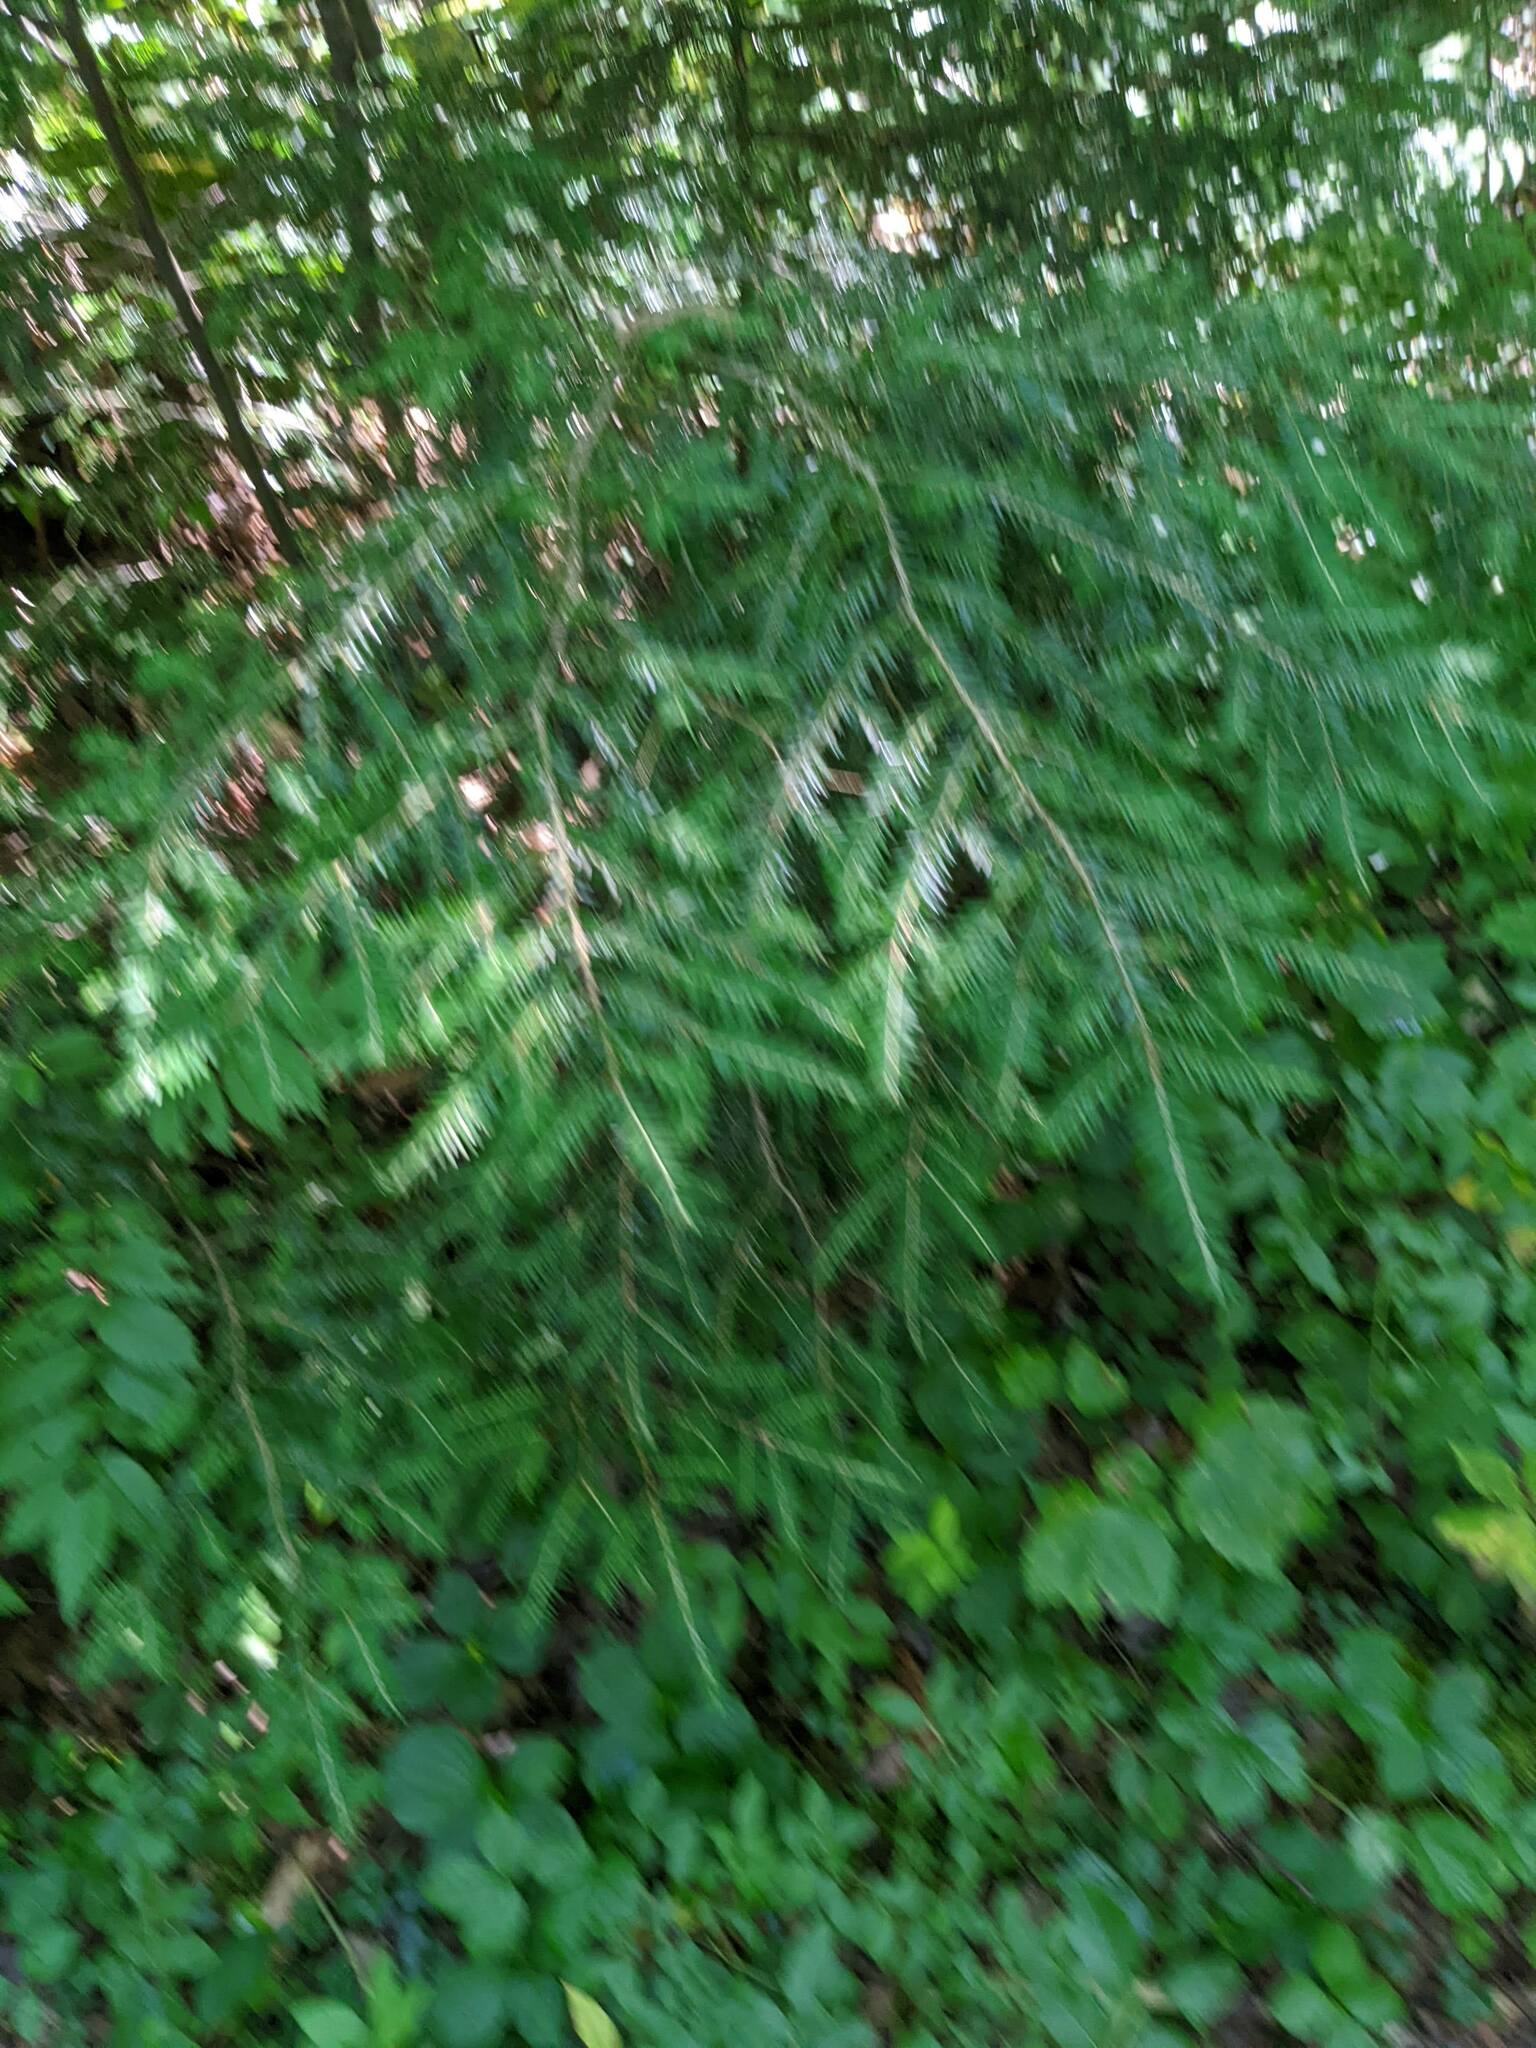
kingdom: Plantae
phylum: Tracheophyta
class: Pinopsida
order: Pinales
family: Pinaceae
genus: Tsuga
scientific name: Tsuga canadensis
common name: Eastern hemlock
